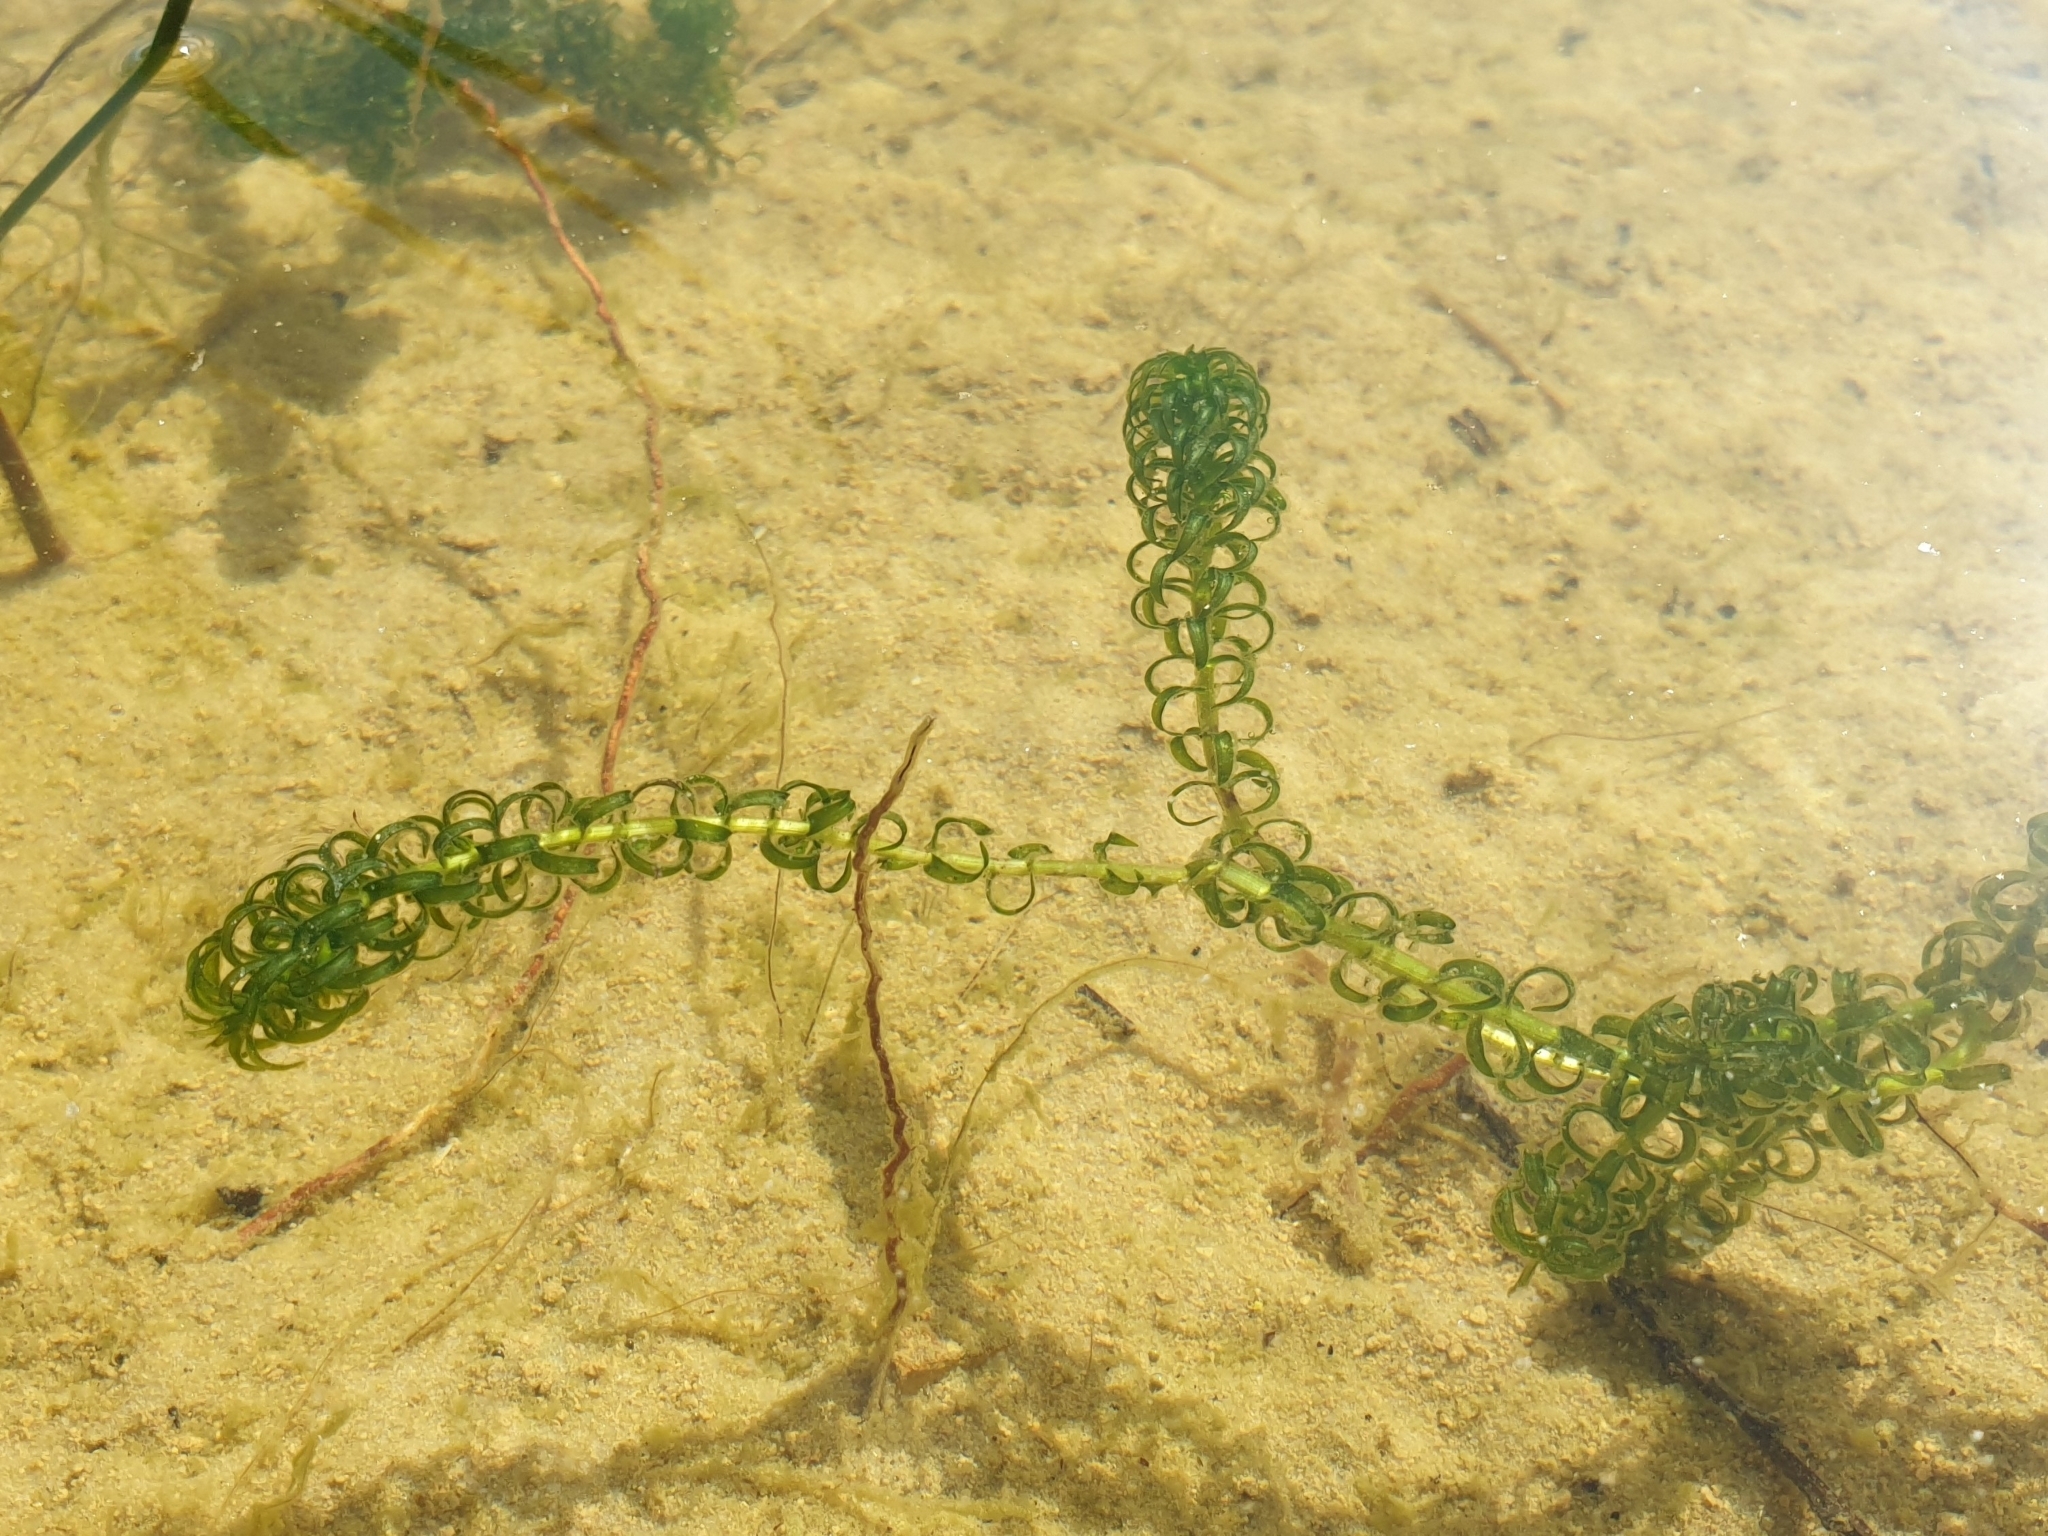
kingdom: Plantae
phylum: Tracheophyta
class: Liliopsida
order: Alismatales
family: Hydrocharitaceae
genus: Lagarosiphon
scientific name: Lagarosiphon major
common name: Curly waterweed
